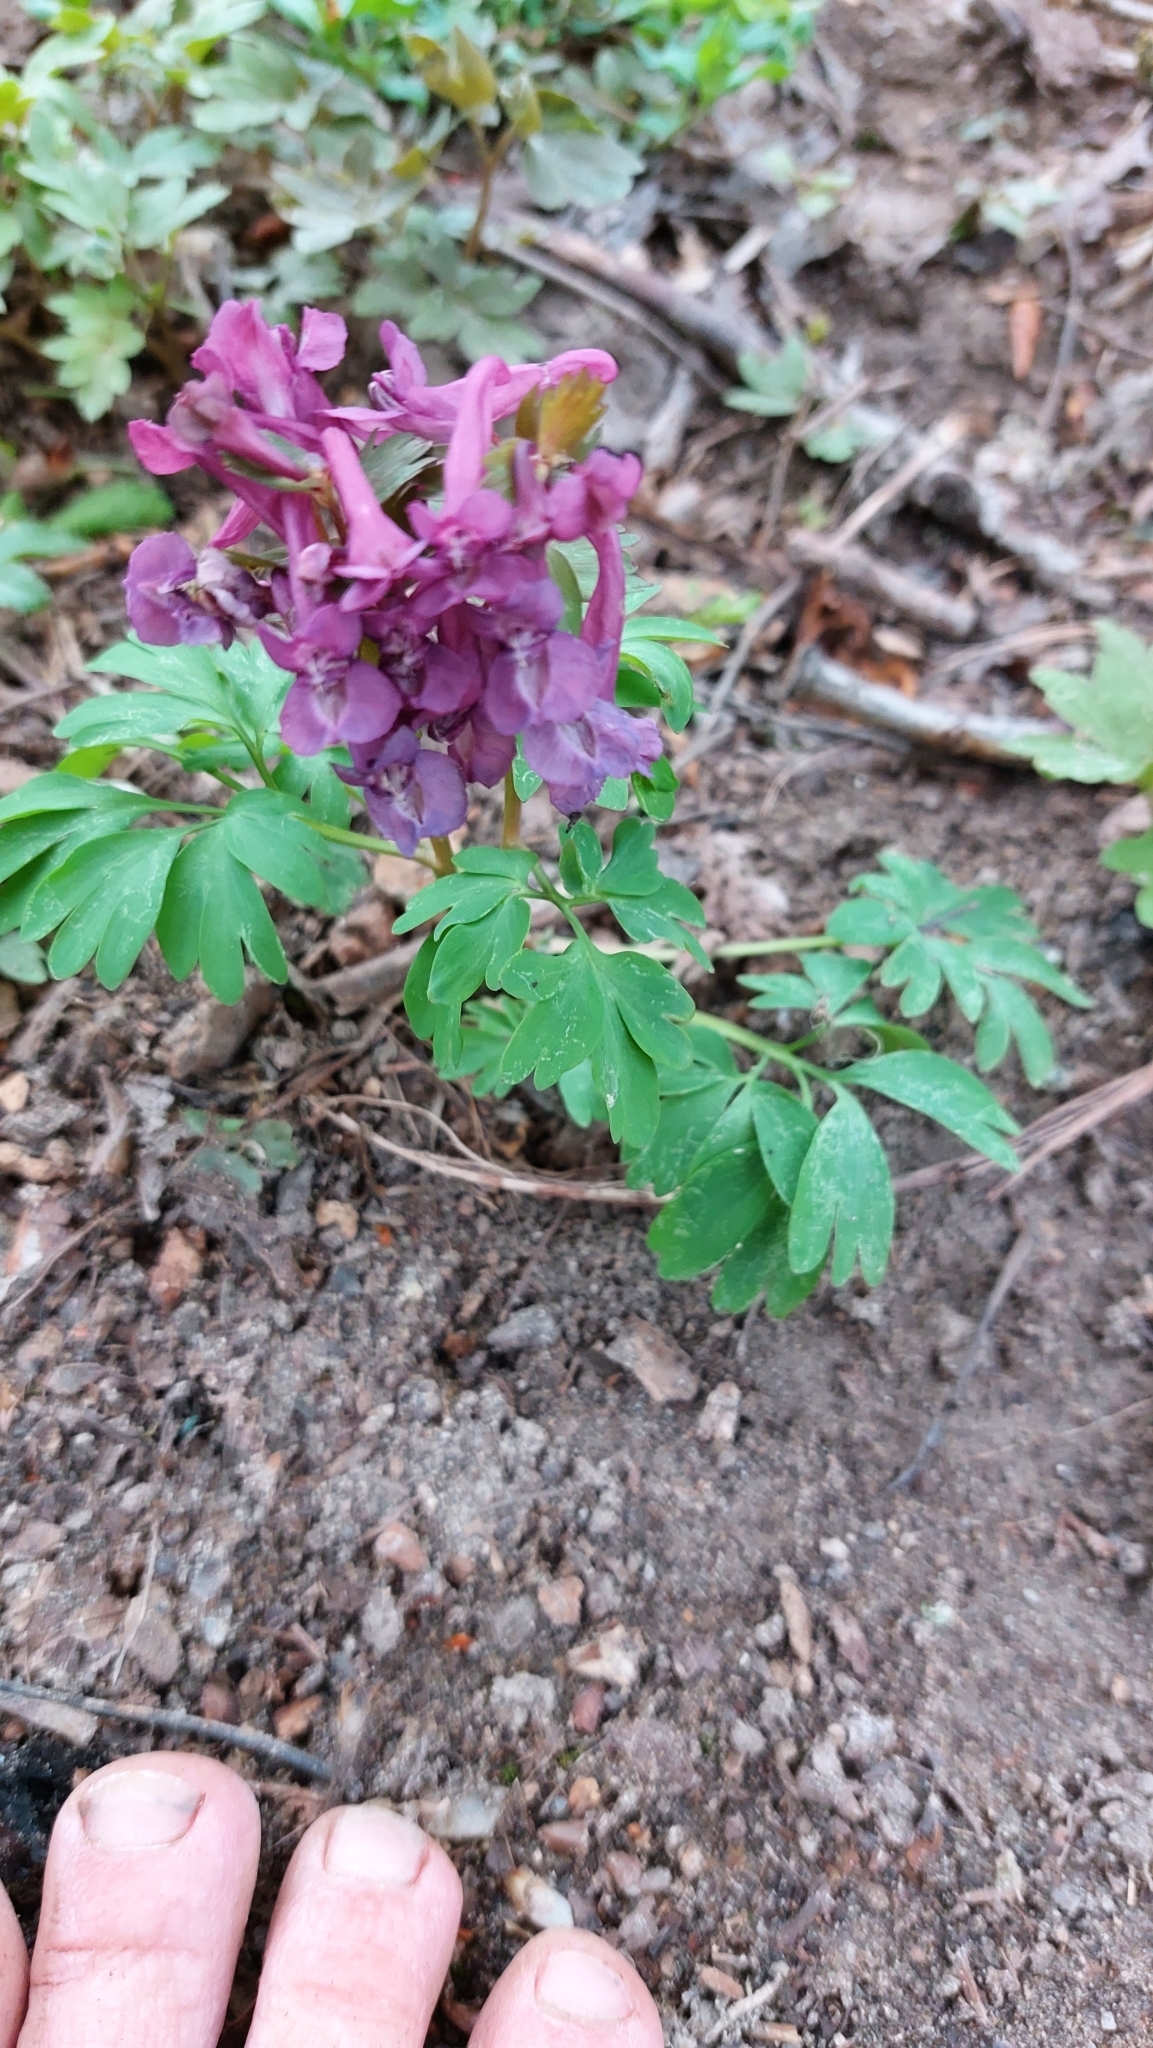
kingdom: Plantae
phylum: Tracheophyta
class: Magnoliopsida
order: Ranunculales
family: Papaveraceae
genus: Corydalis
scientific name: Corydalis solida
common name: Bird-in-a-bush
